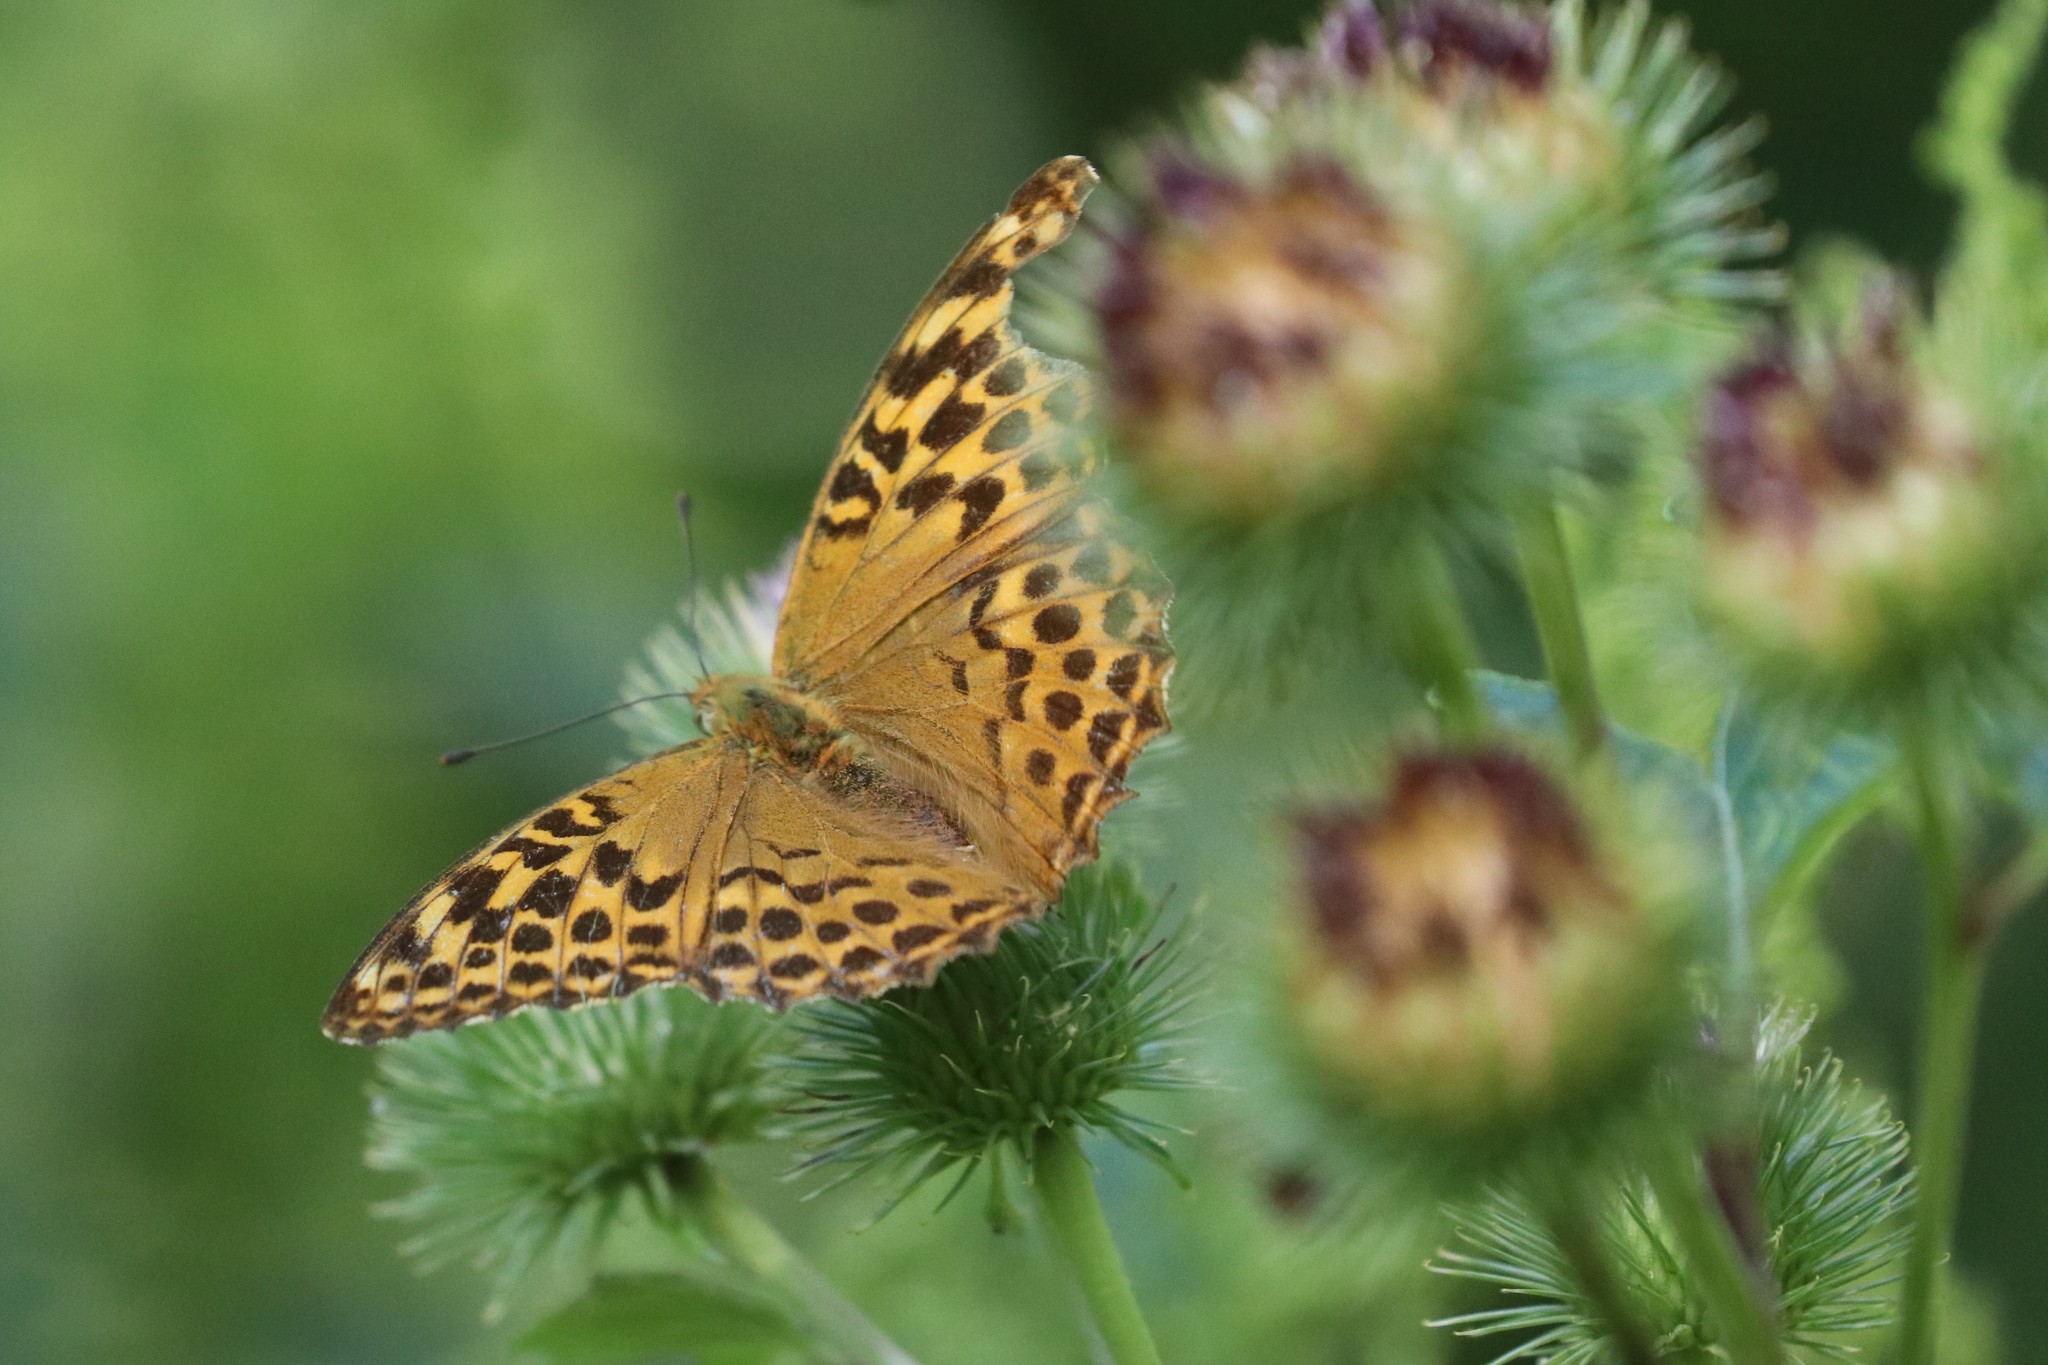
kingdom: Animalia
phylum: Arthropoda
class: Insecta
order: Lepidoptera
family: Nymphalidae
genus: Argynnis
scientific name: Argynnis paphia
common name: Silver-washed fritillary
